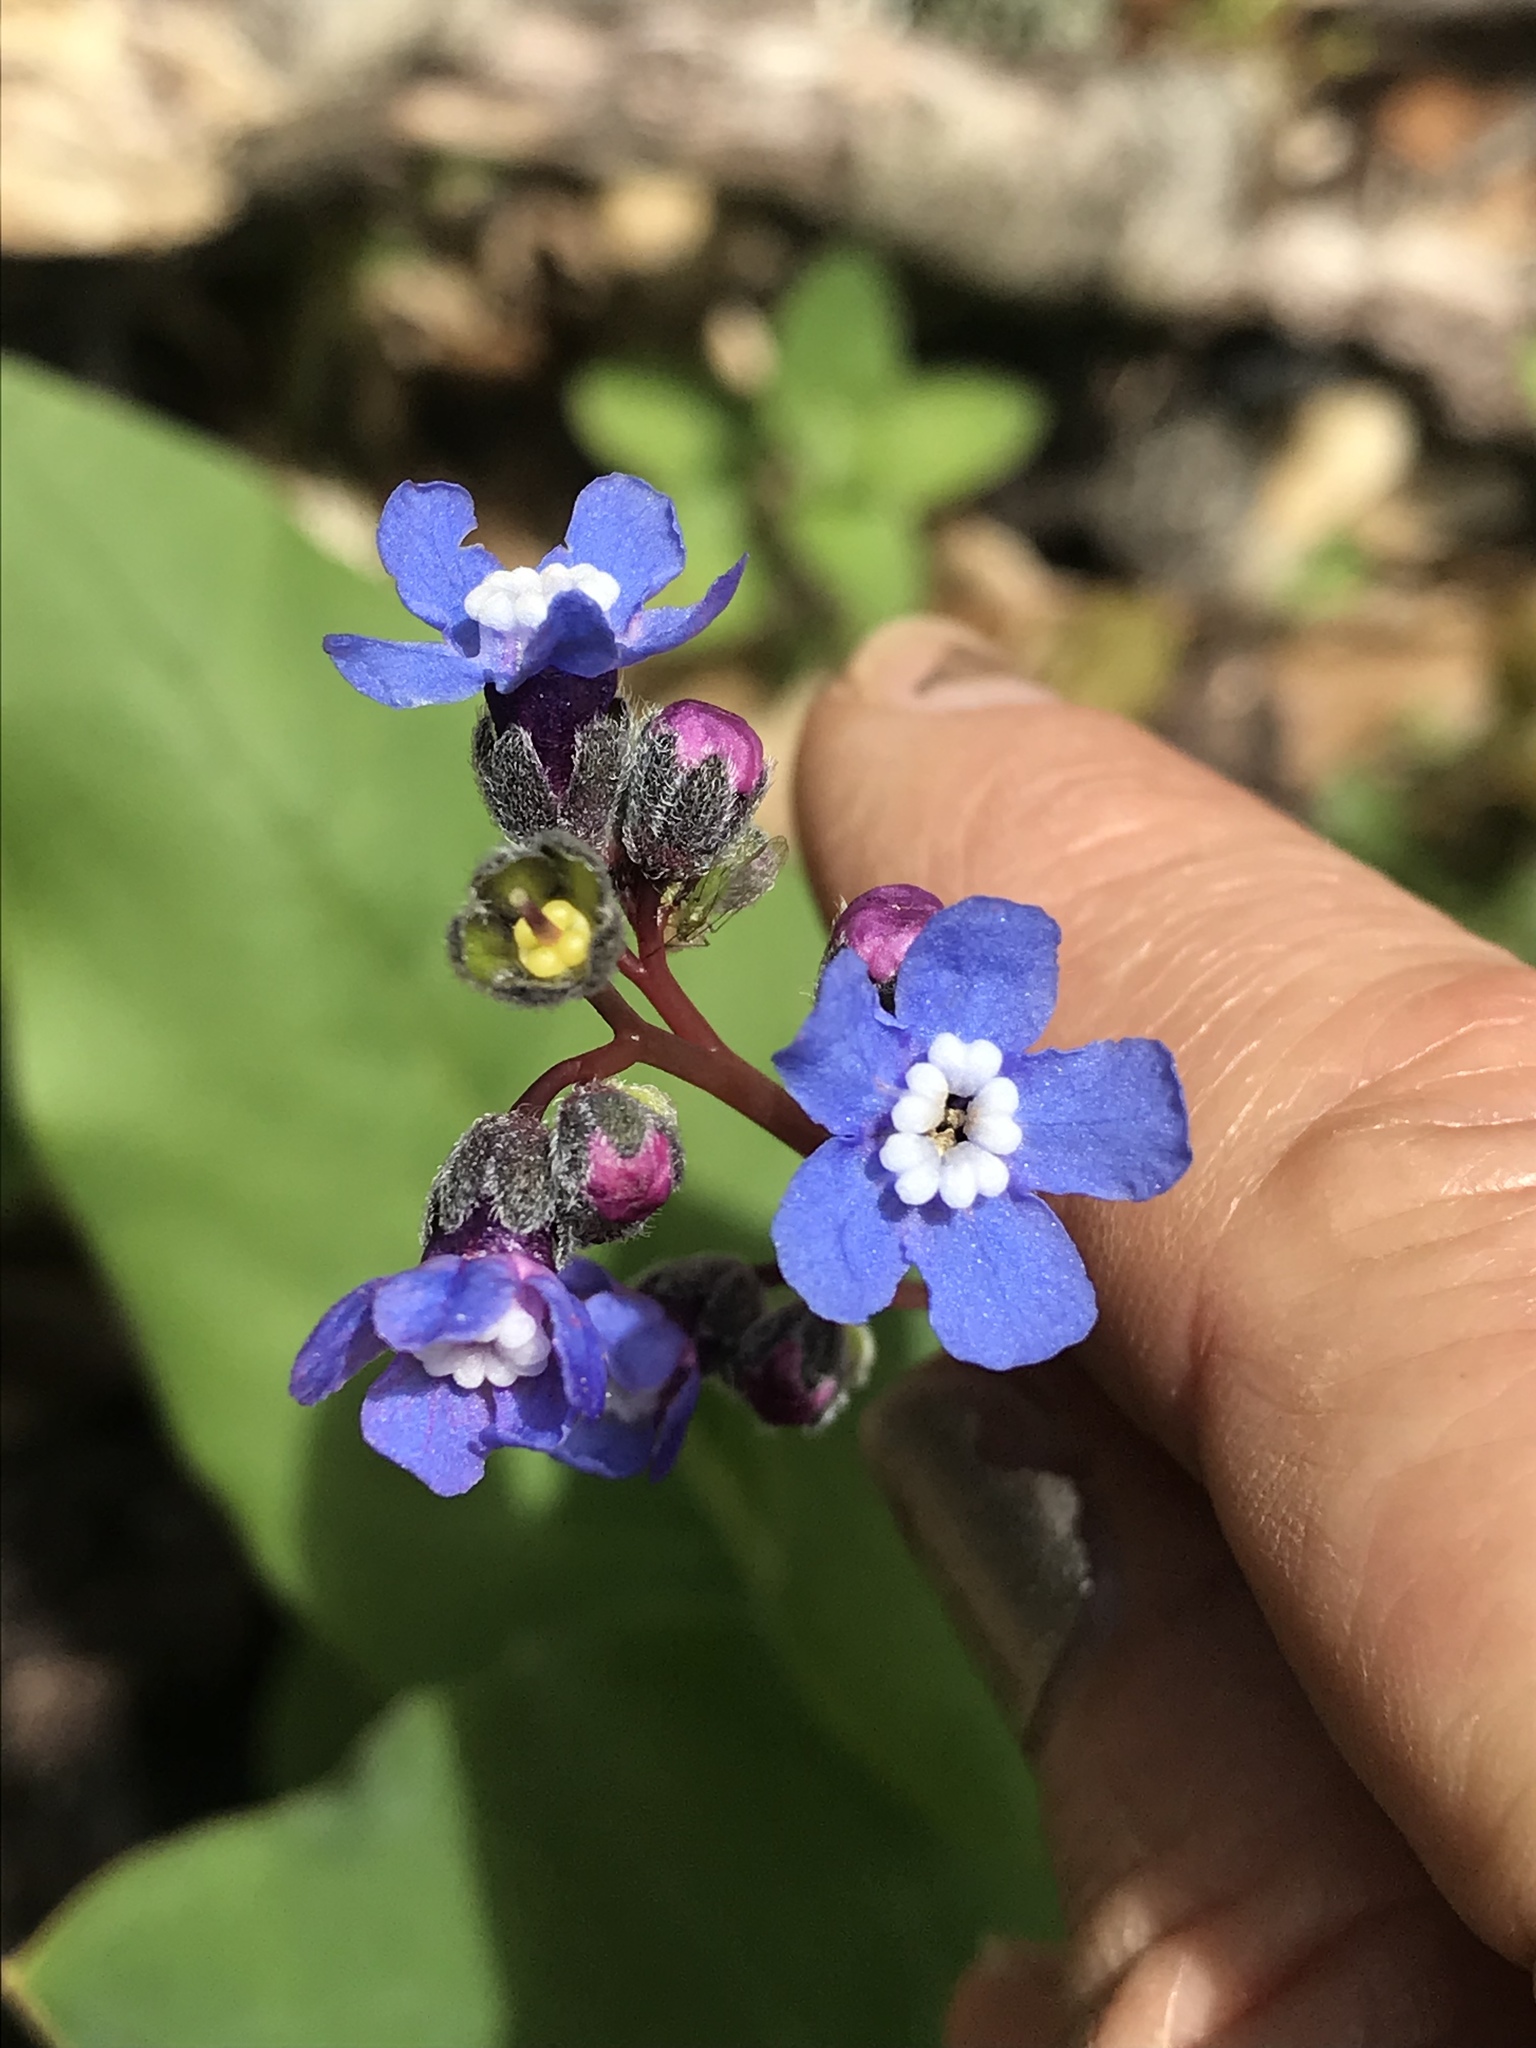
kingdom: Plantae
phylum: Tracheophyta
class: Magnoliopsida
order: Boraginales
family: Boraginaceae
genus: Adelinia
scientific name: Adelinia grande
